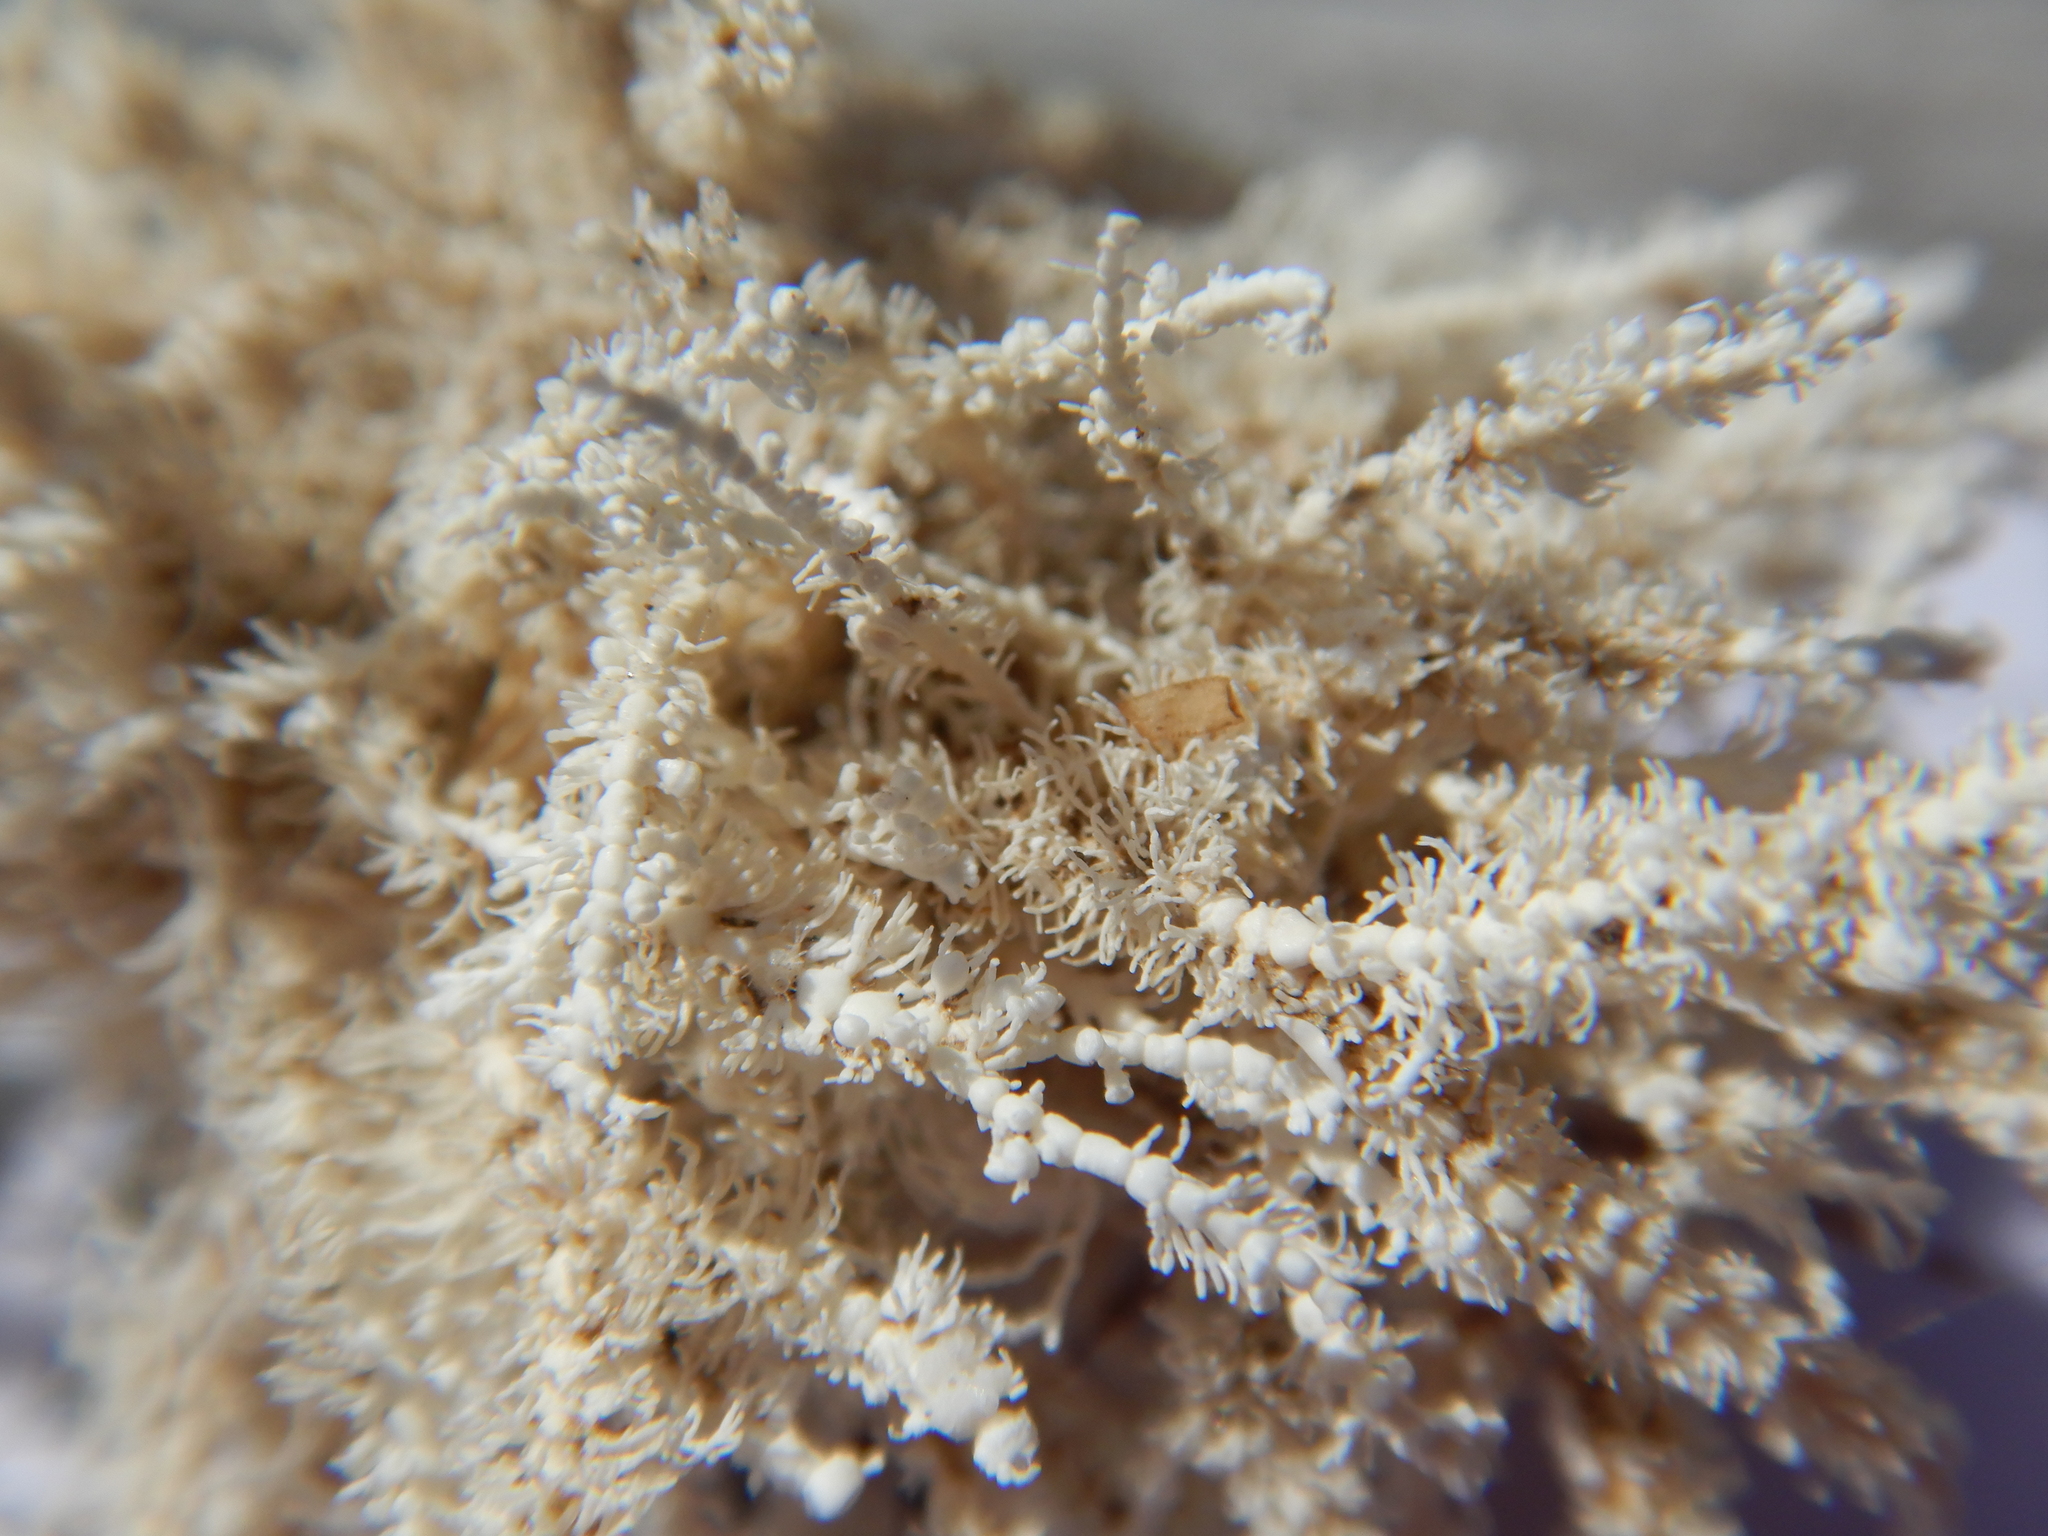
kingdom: Plantae
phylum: Rhodophyta
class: Florideophyceae
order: Corallinales
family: Corallinaceae
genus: Jania
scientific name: Jania rosea
